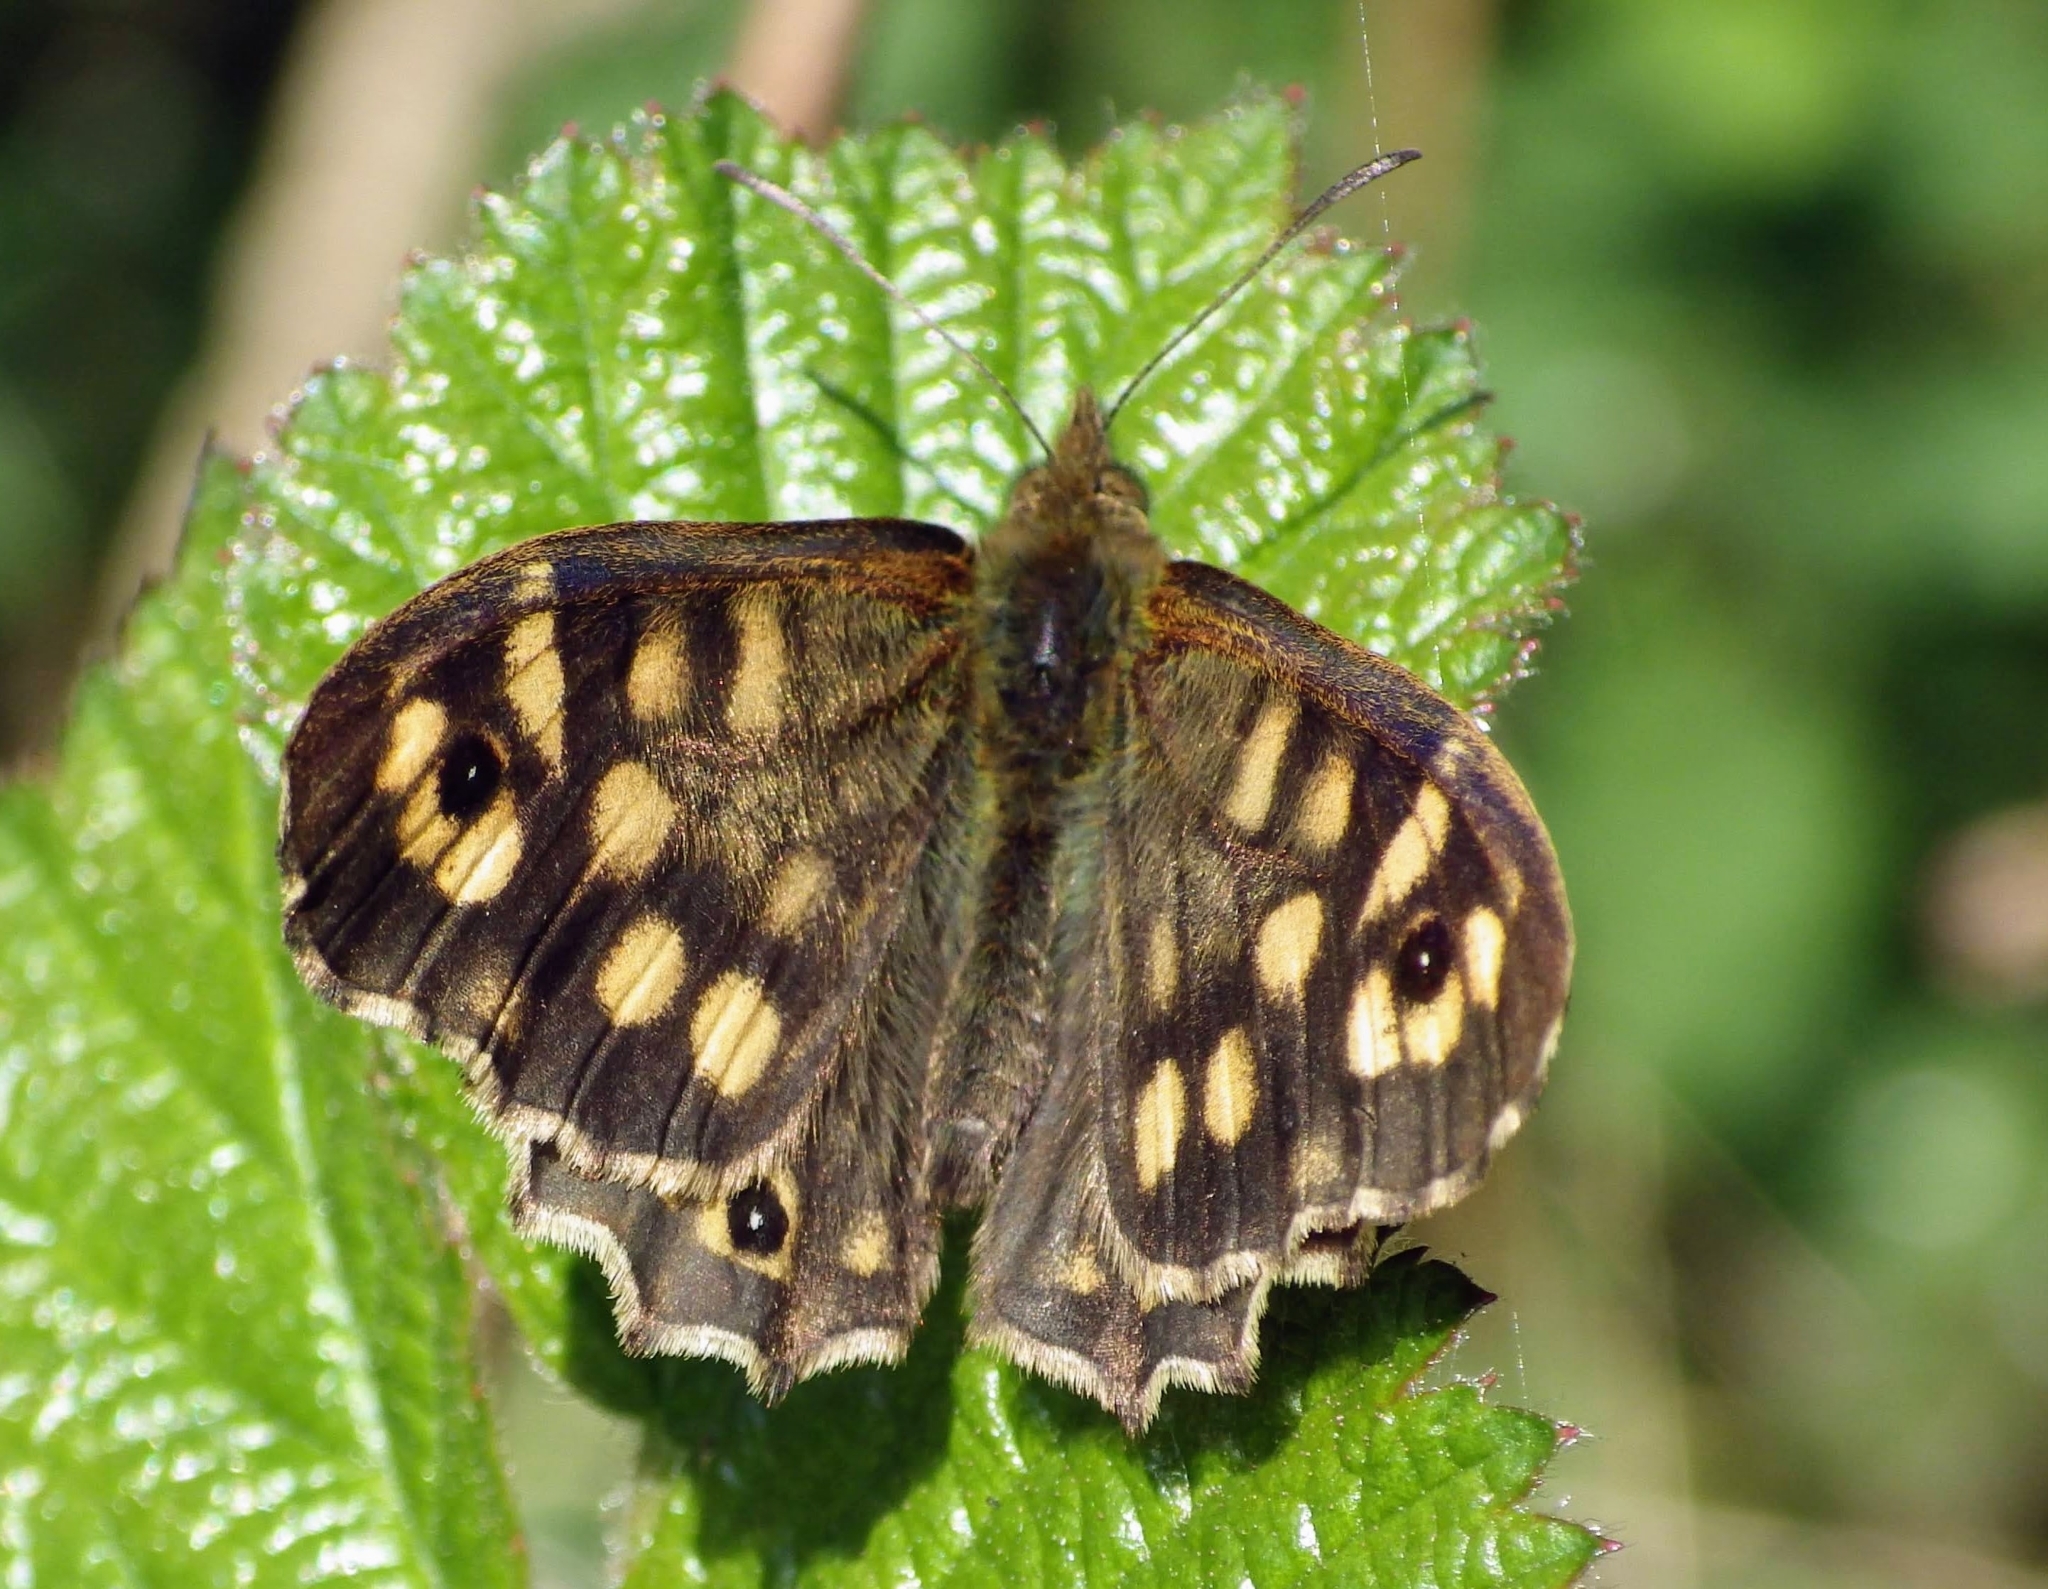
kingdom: Animalia
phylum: Arthropoda
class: Insecta
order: Lepidoptera
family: Nymphalidae
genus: Pararge
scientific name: Pararge aegeria
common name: Speckled wood
